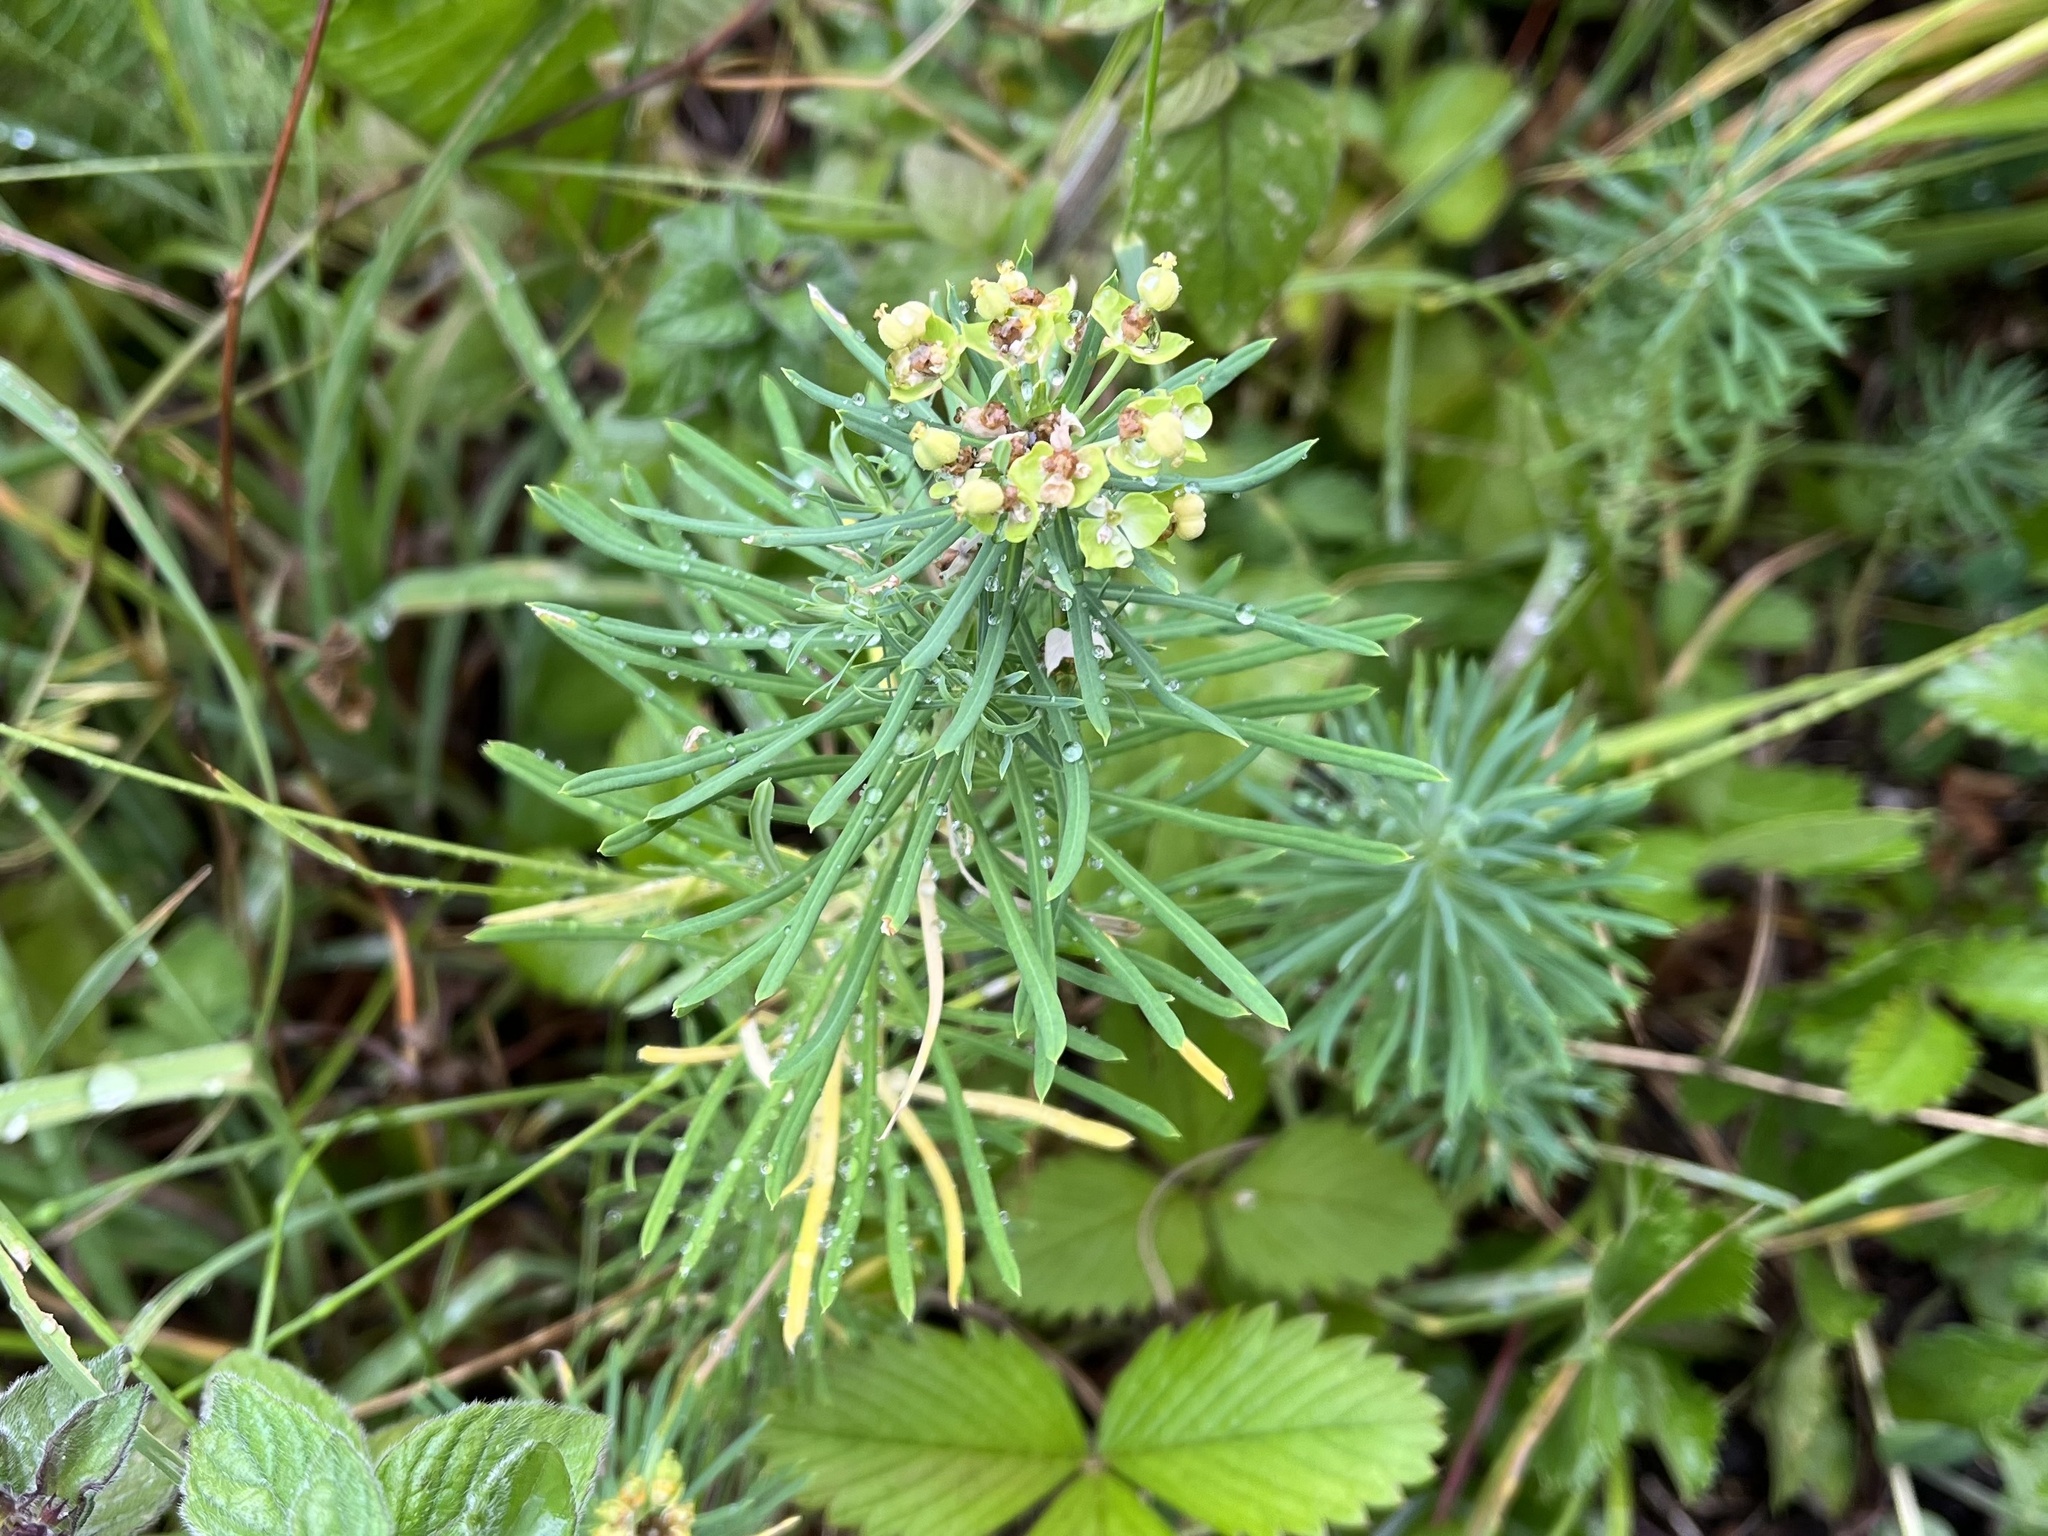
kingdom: Plantae
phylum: Tracheophyta
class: Magnoliopsida
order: Malpighiales
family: Euphorbiaceae
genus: Euphorbia
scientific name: Euphorbia cyparissias
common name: Cypress spurge
